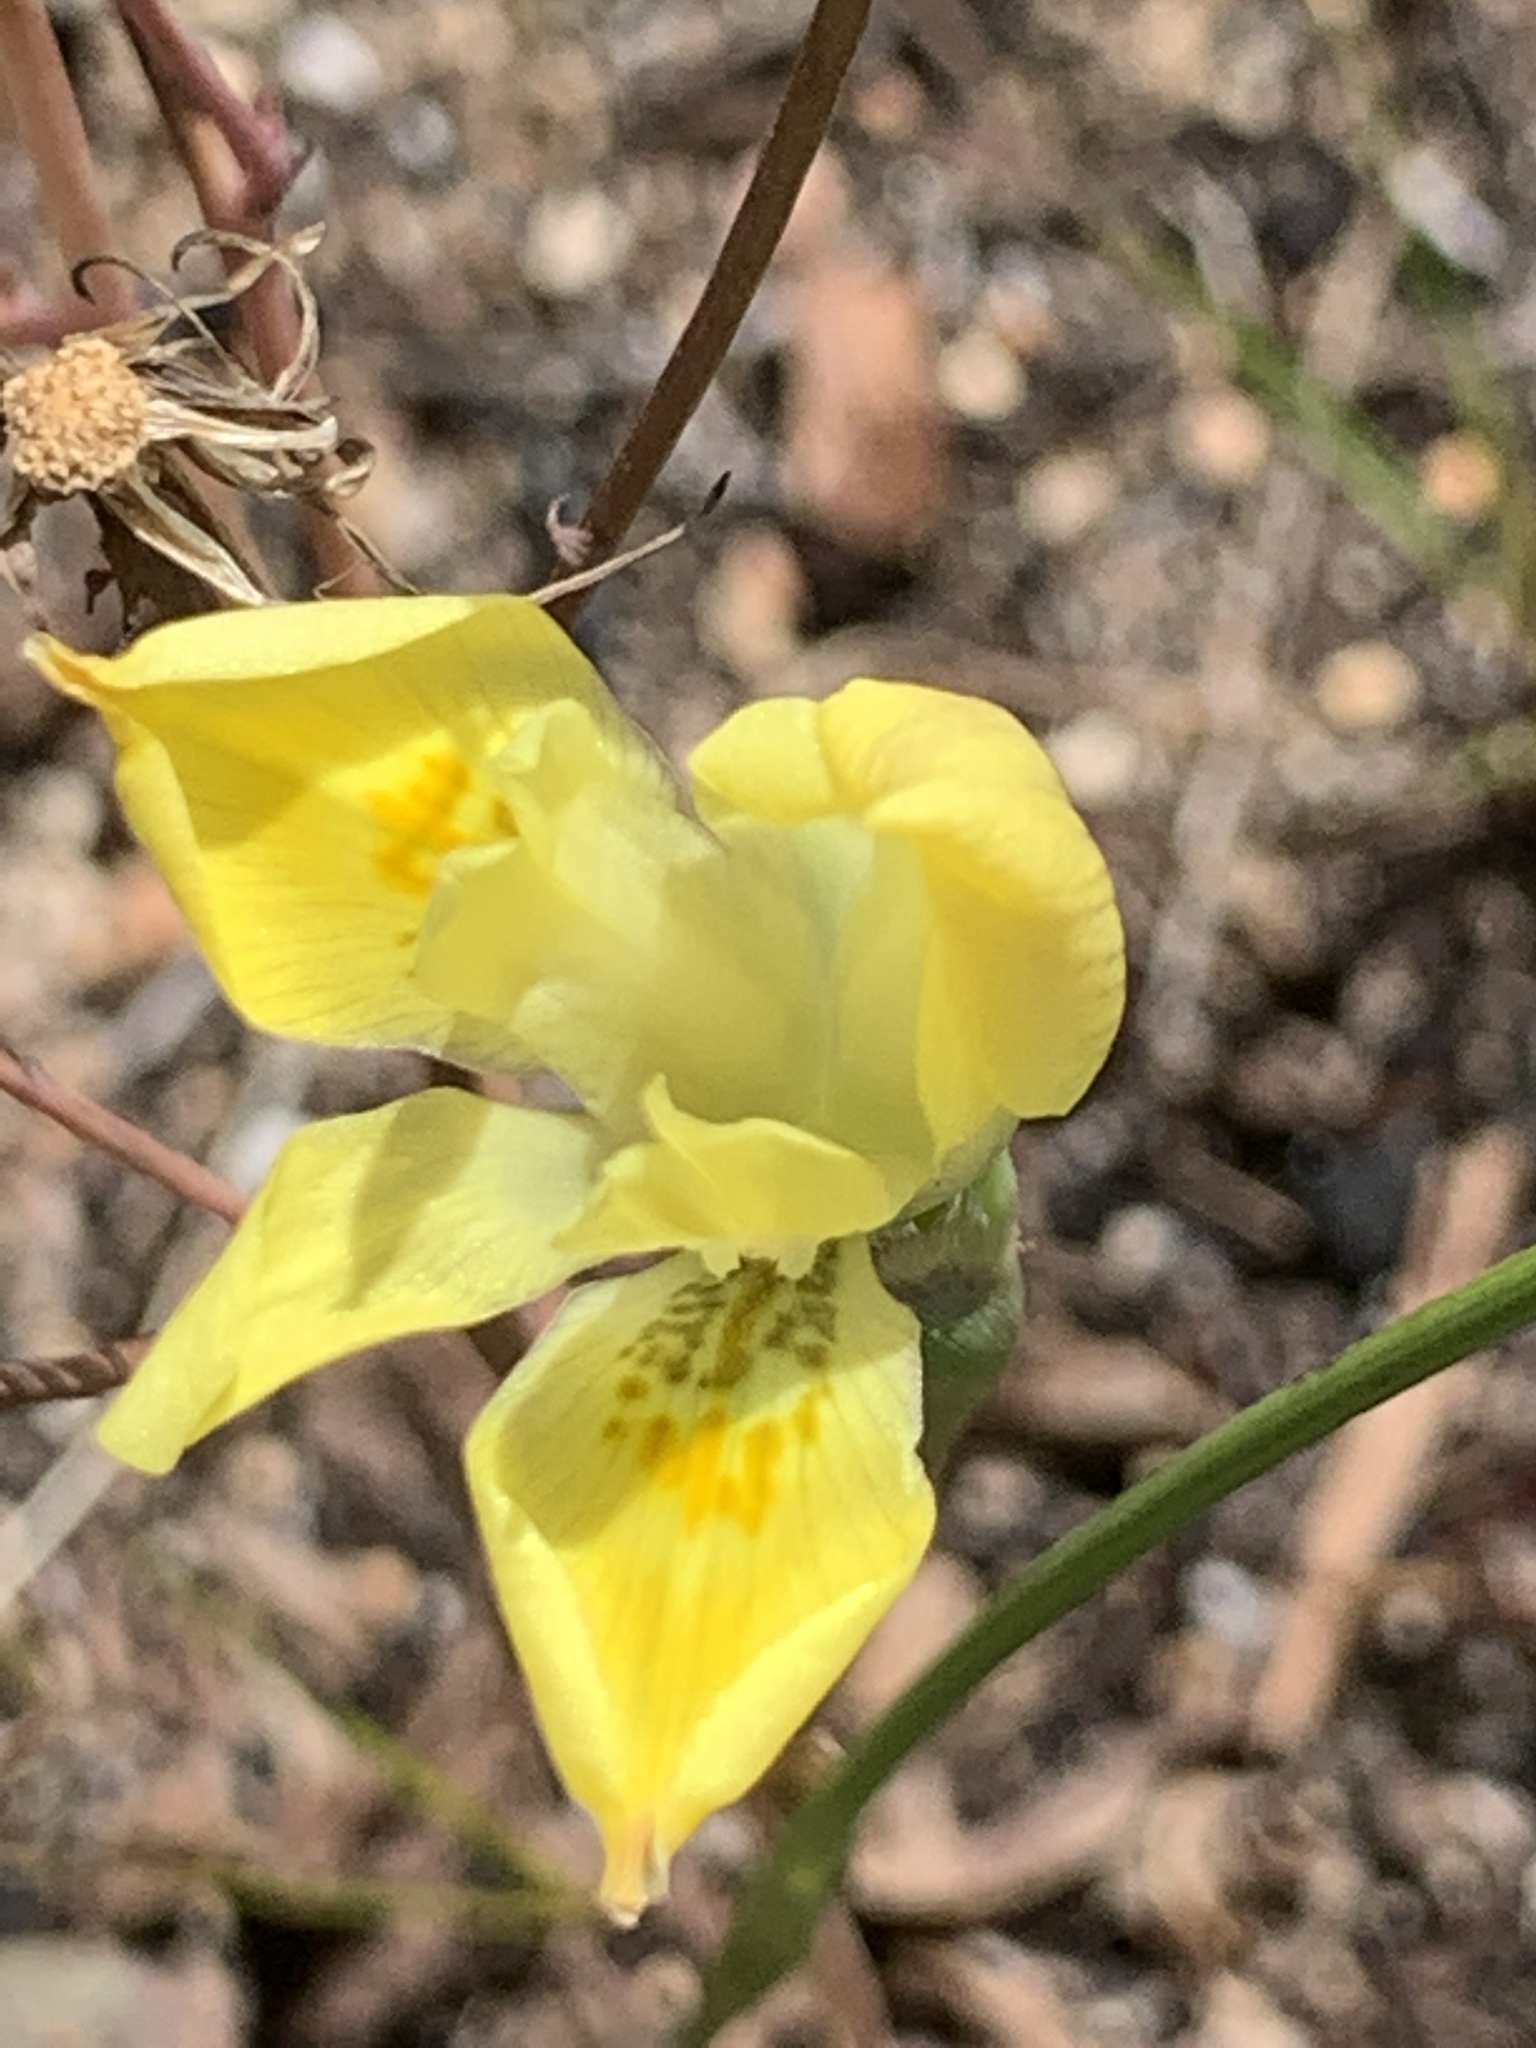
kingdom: Plantae
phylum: Tracheophyta
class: Liliopsida
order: Asparagales
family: Iridaceae
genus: Moraea
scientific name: Moraea fugax
